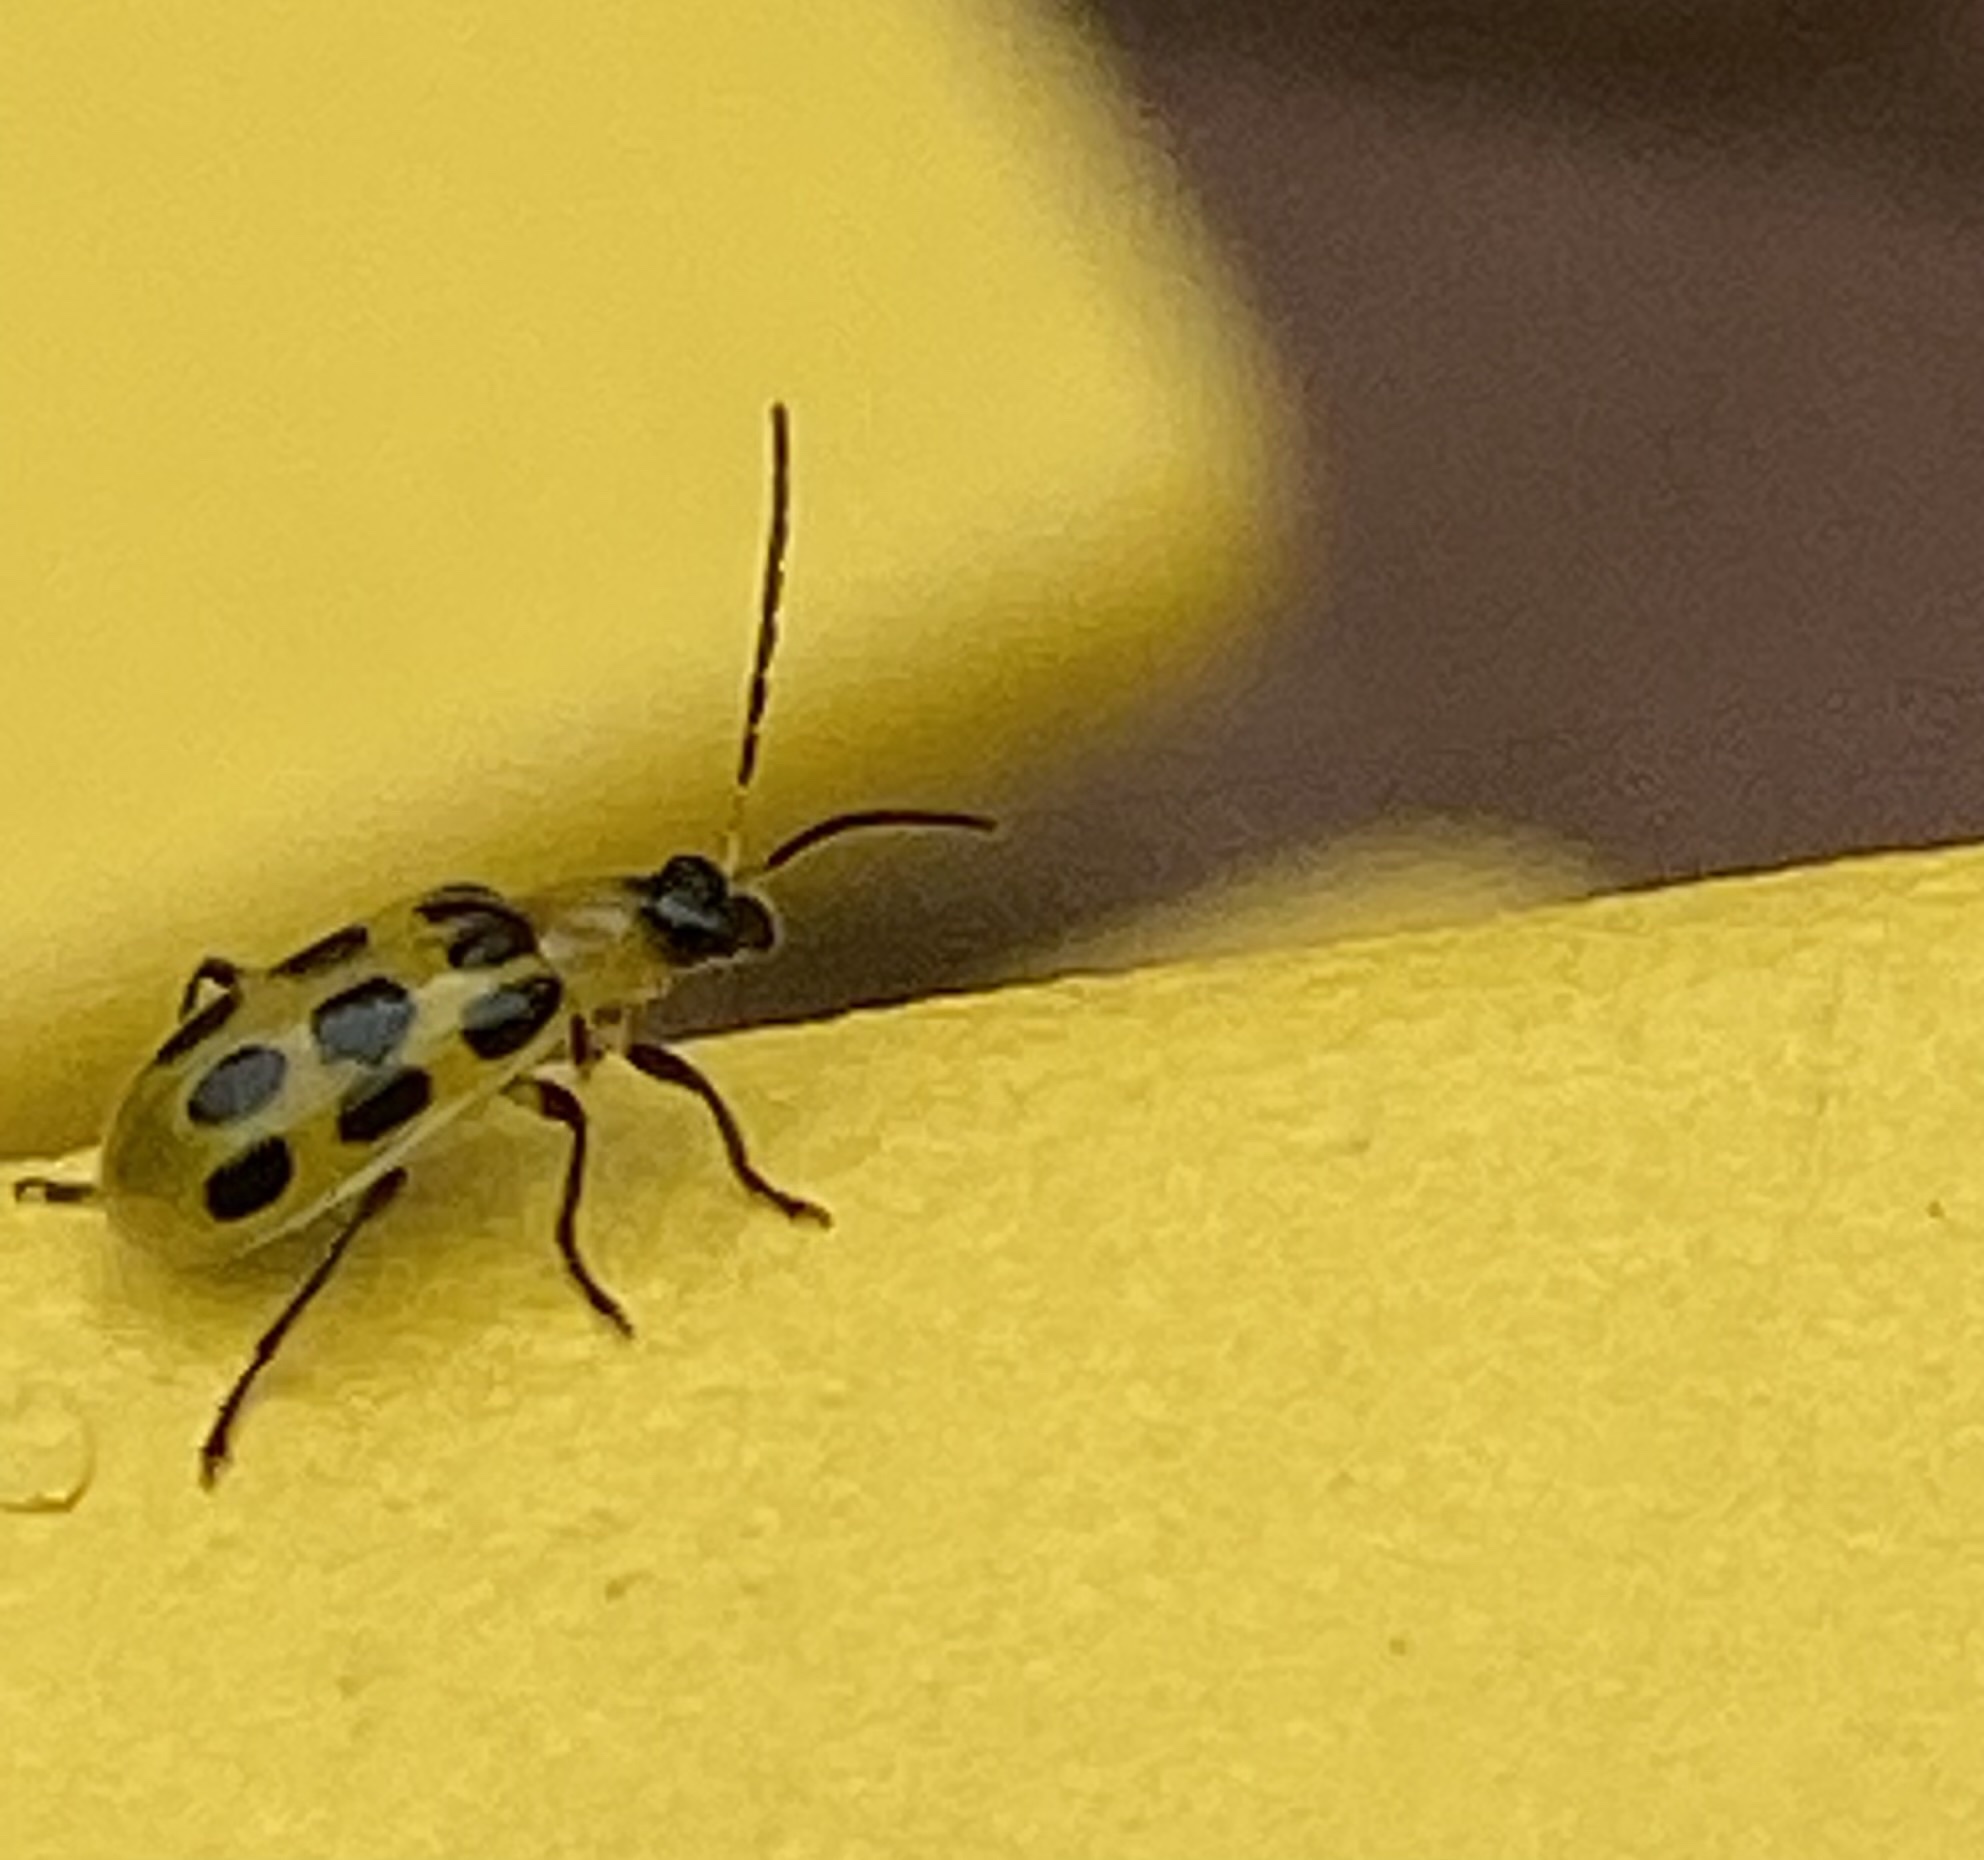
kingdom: Animalia
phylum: Arthropoda
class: Insecta
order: Coleoptera
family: Chrysomelidae
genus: Diabrotica
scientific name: Diabrotica undecimpunctata
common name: Spotted cucumber beetle
